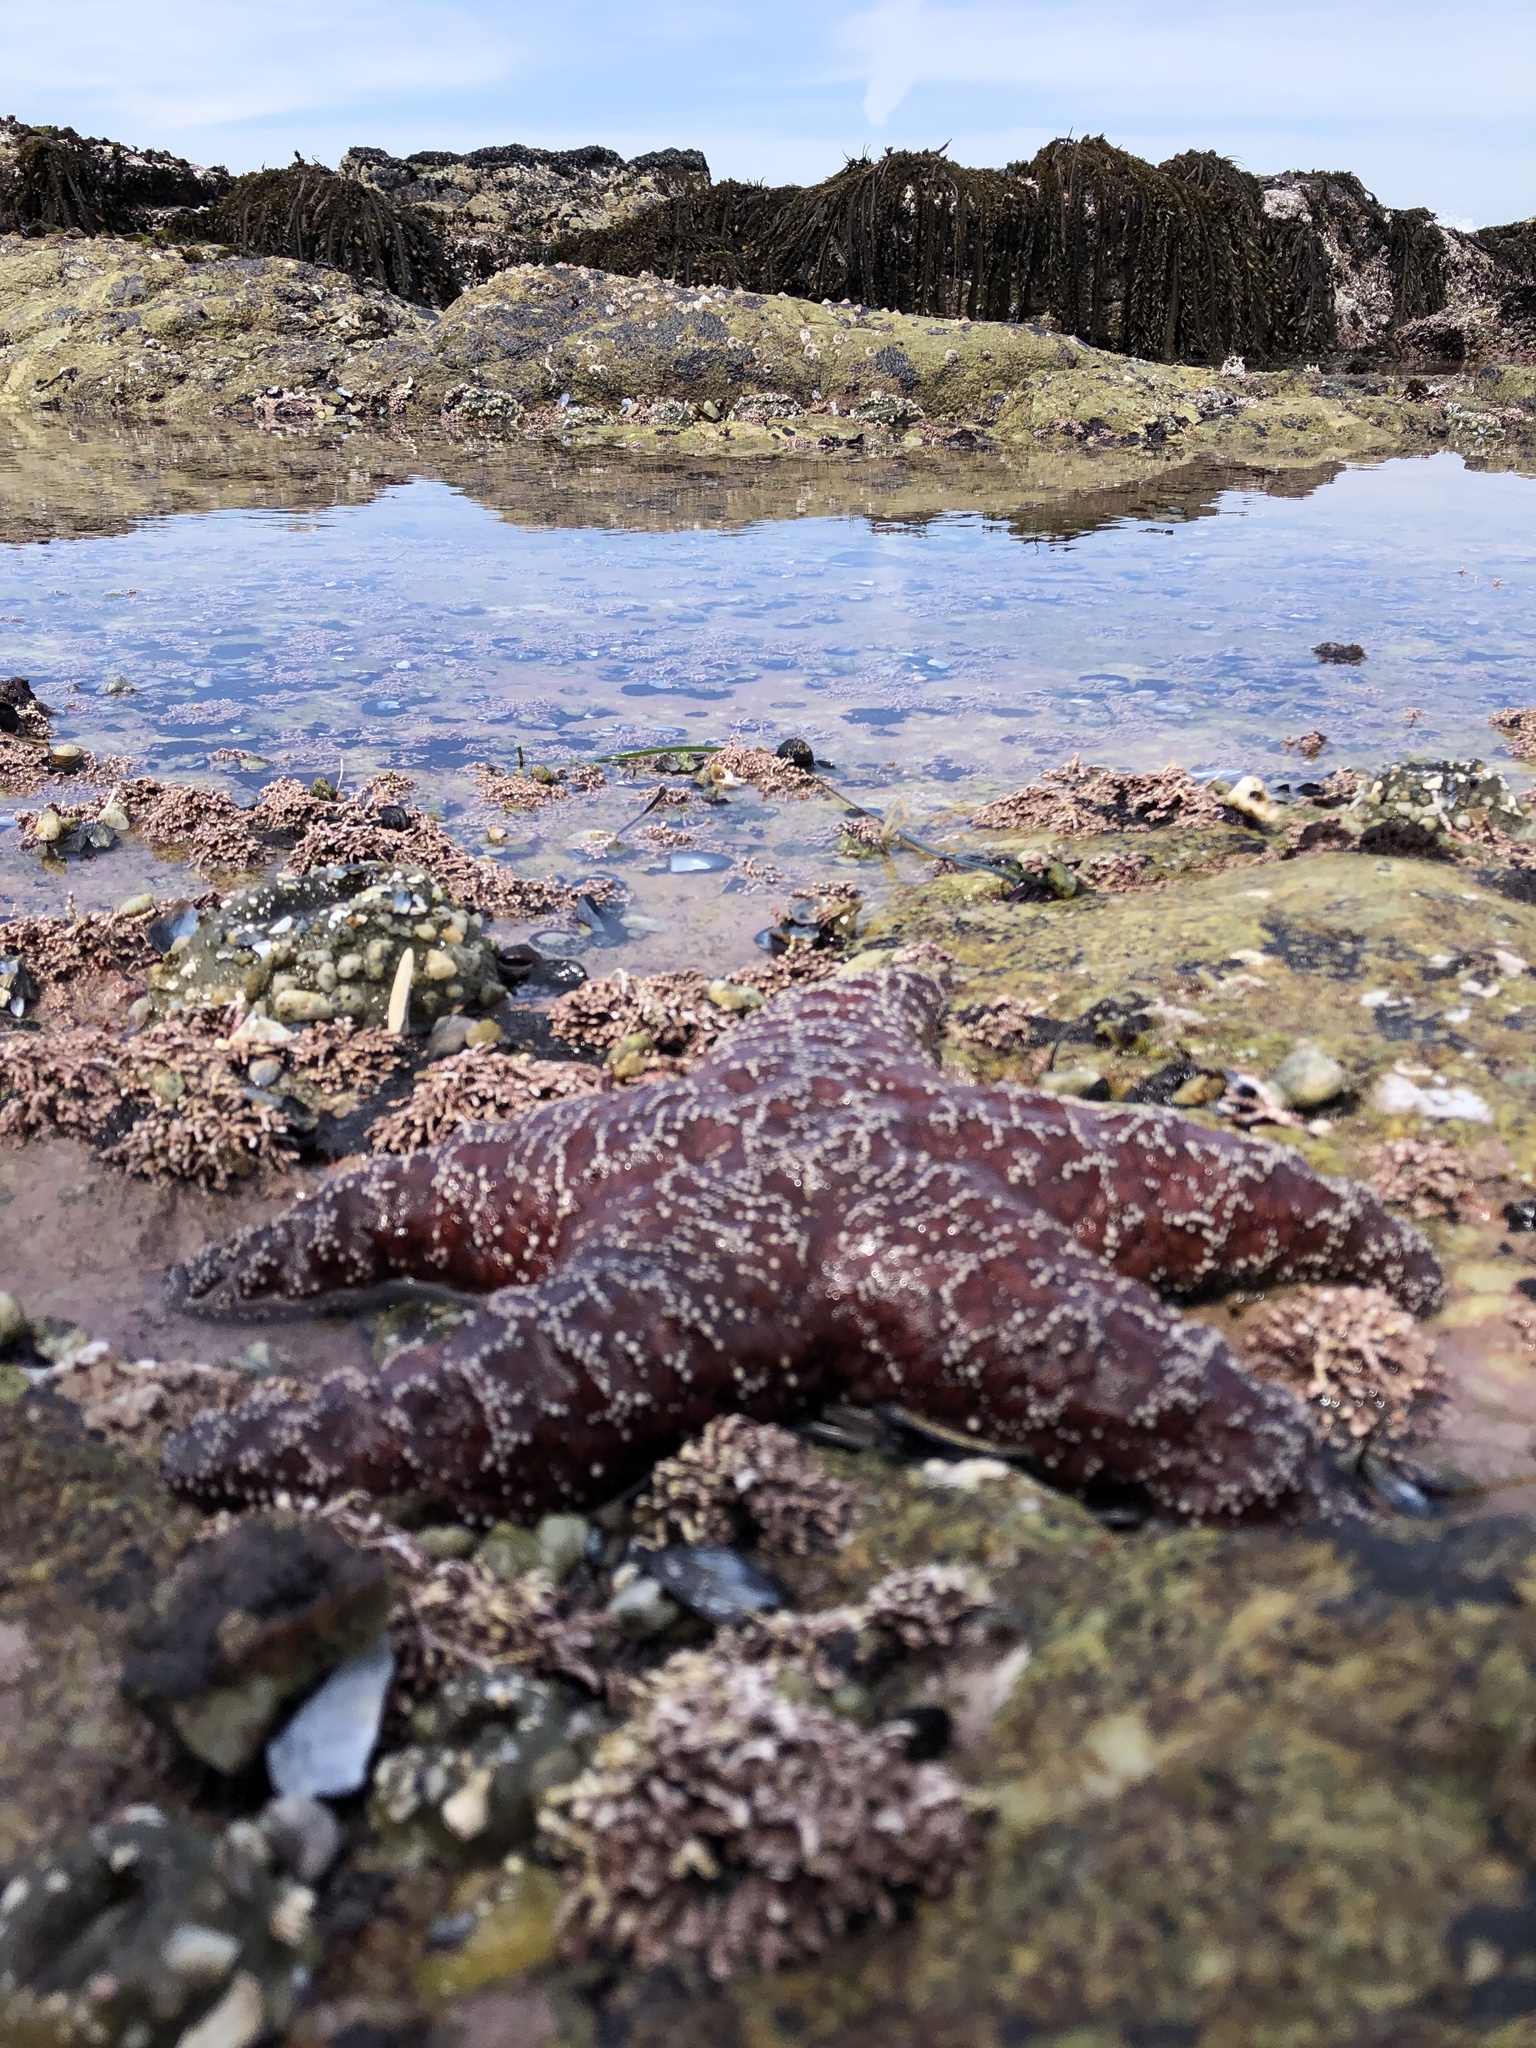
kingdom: Animalia
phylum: Echinodermata
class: Asteroidea
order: Forcipulatida
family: Asteriidae
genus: Pisaster
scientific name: Pisaster ochraceus
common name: Ochre stars
